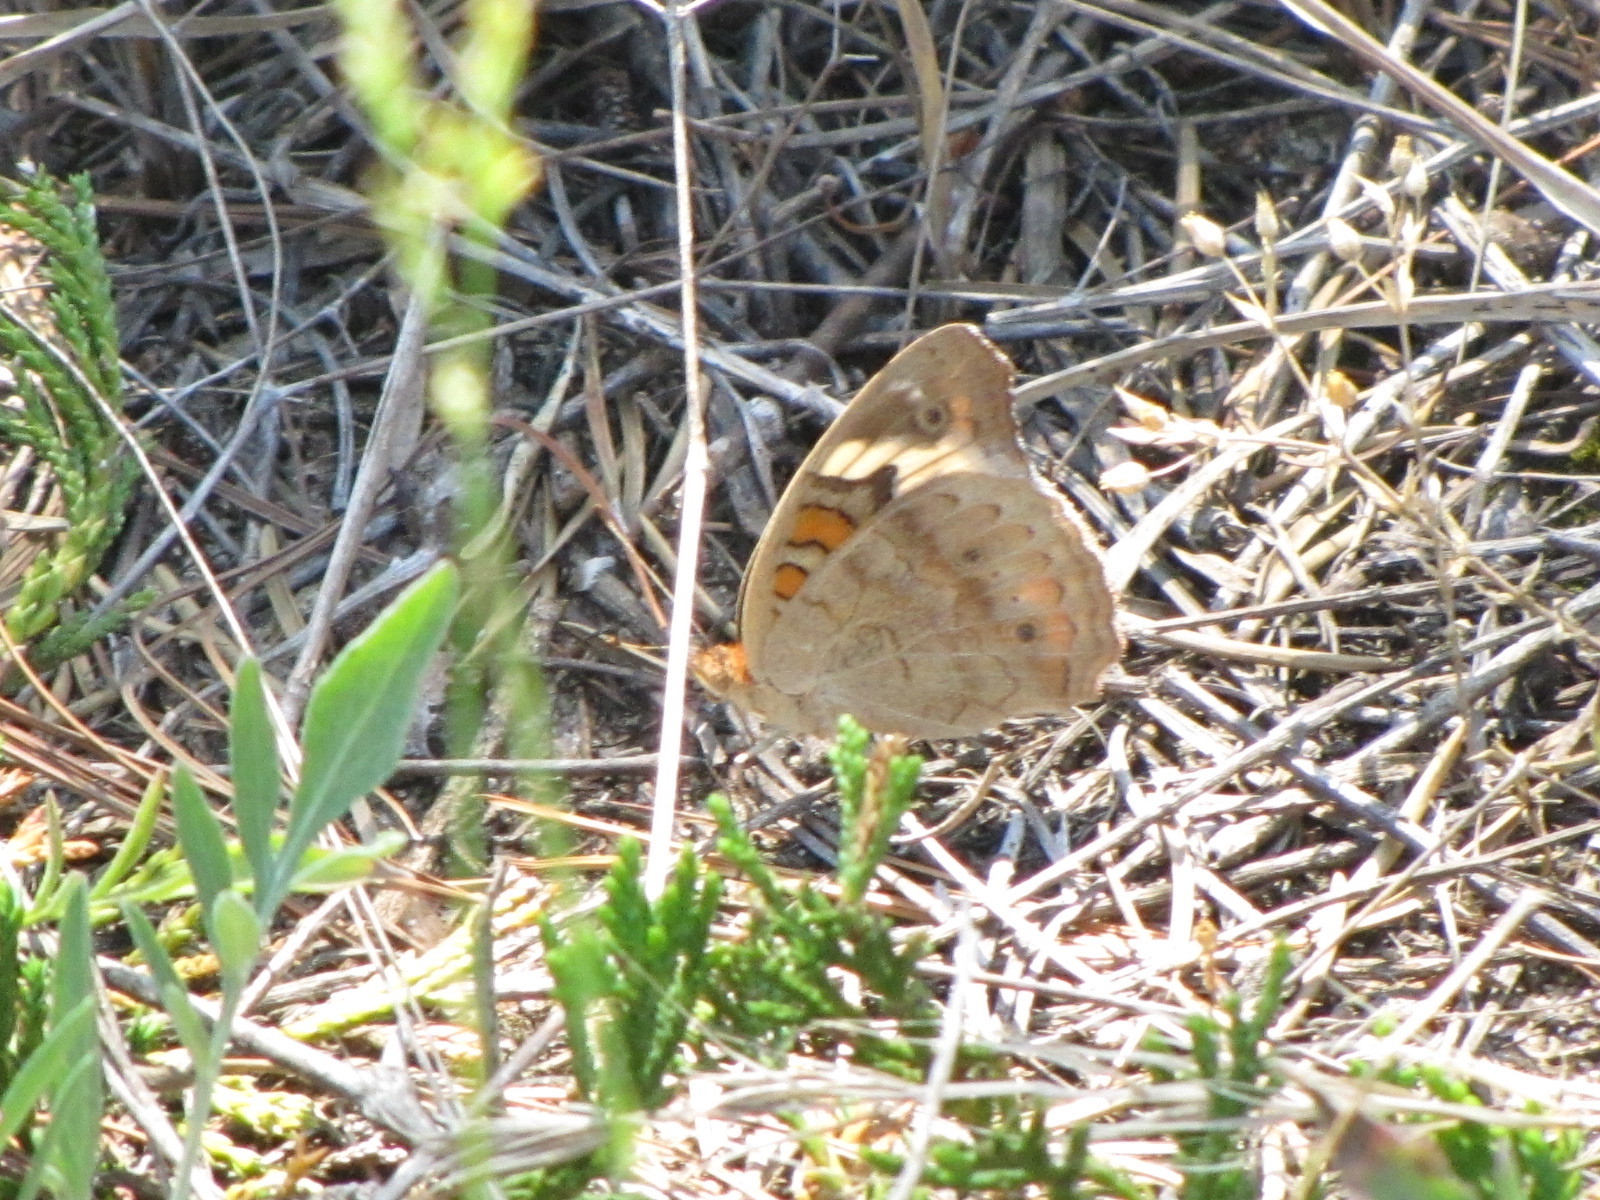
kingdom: Animalia
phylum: Arthropoda
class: Insecta
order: Lepidoptera
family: Nymphalidae
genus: Junonia
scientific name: Junonia coenia
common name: Common buckeye
